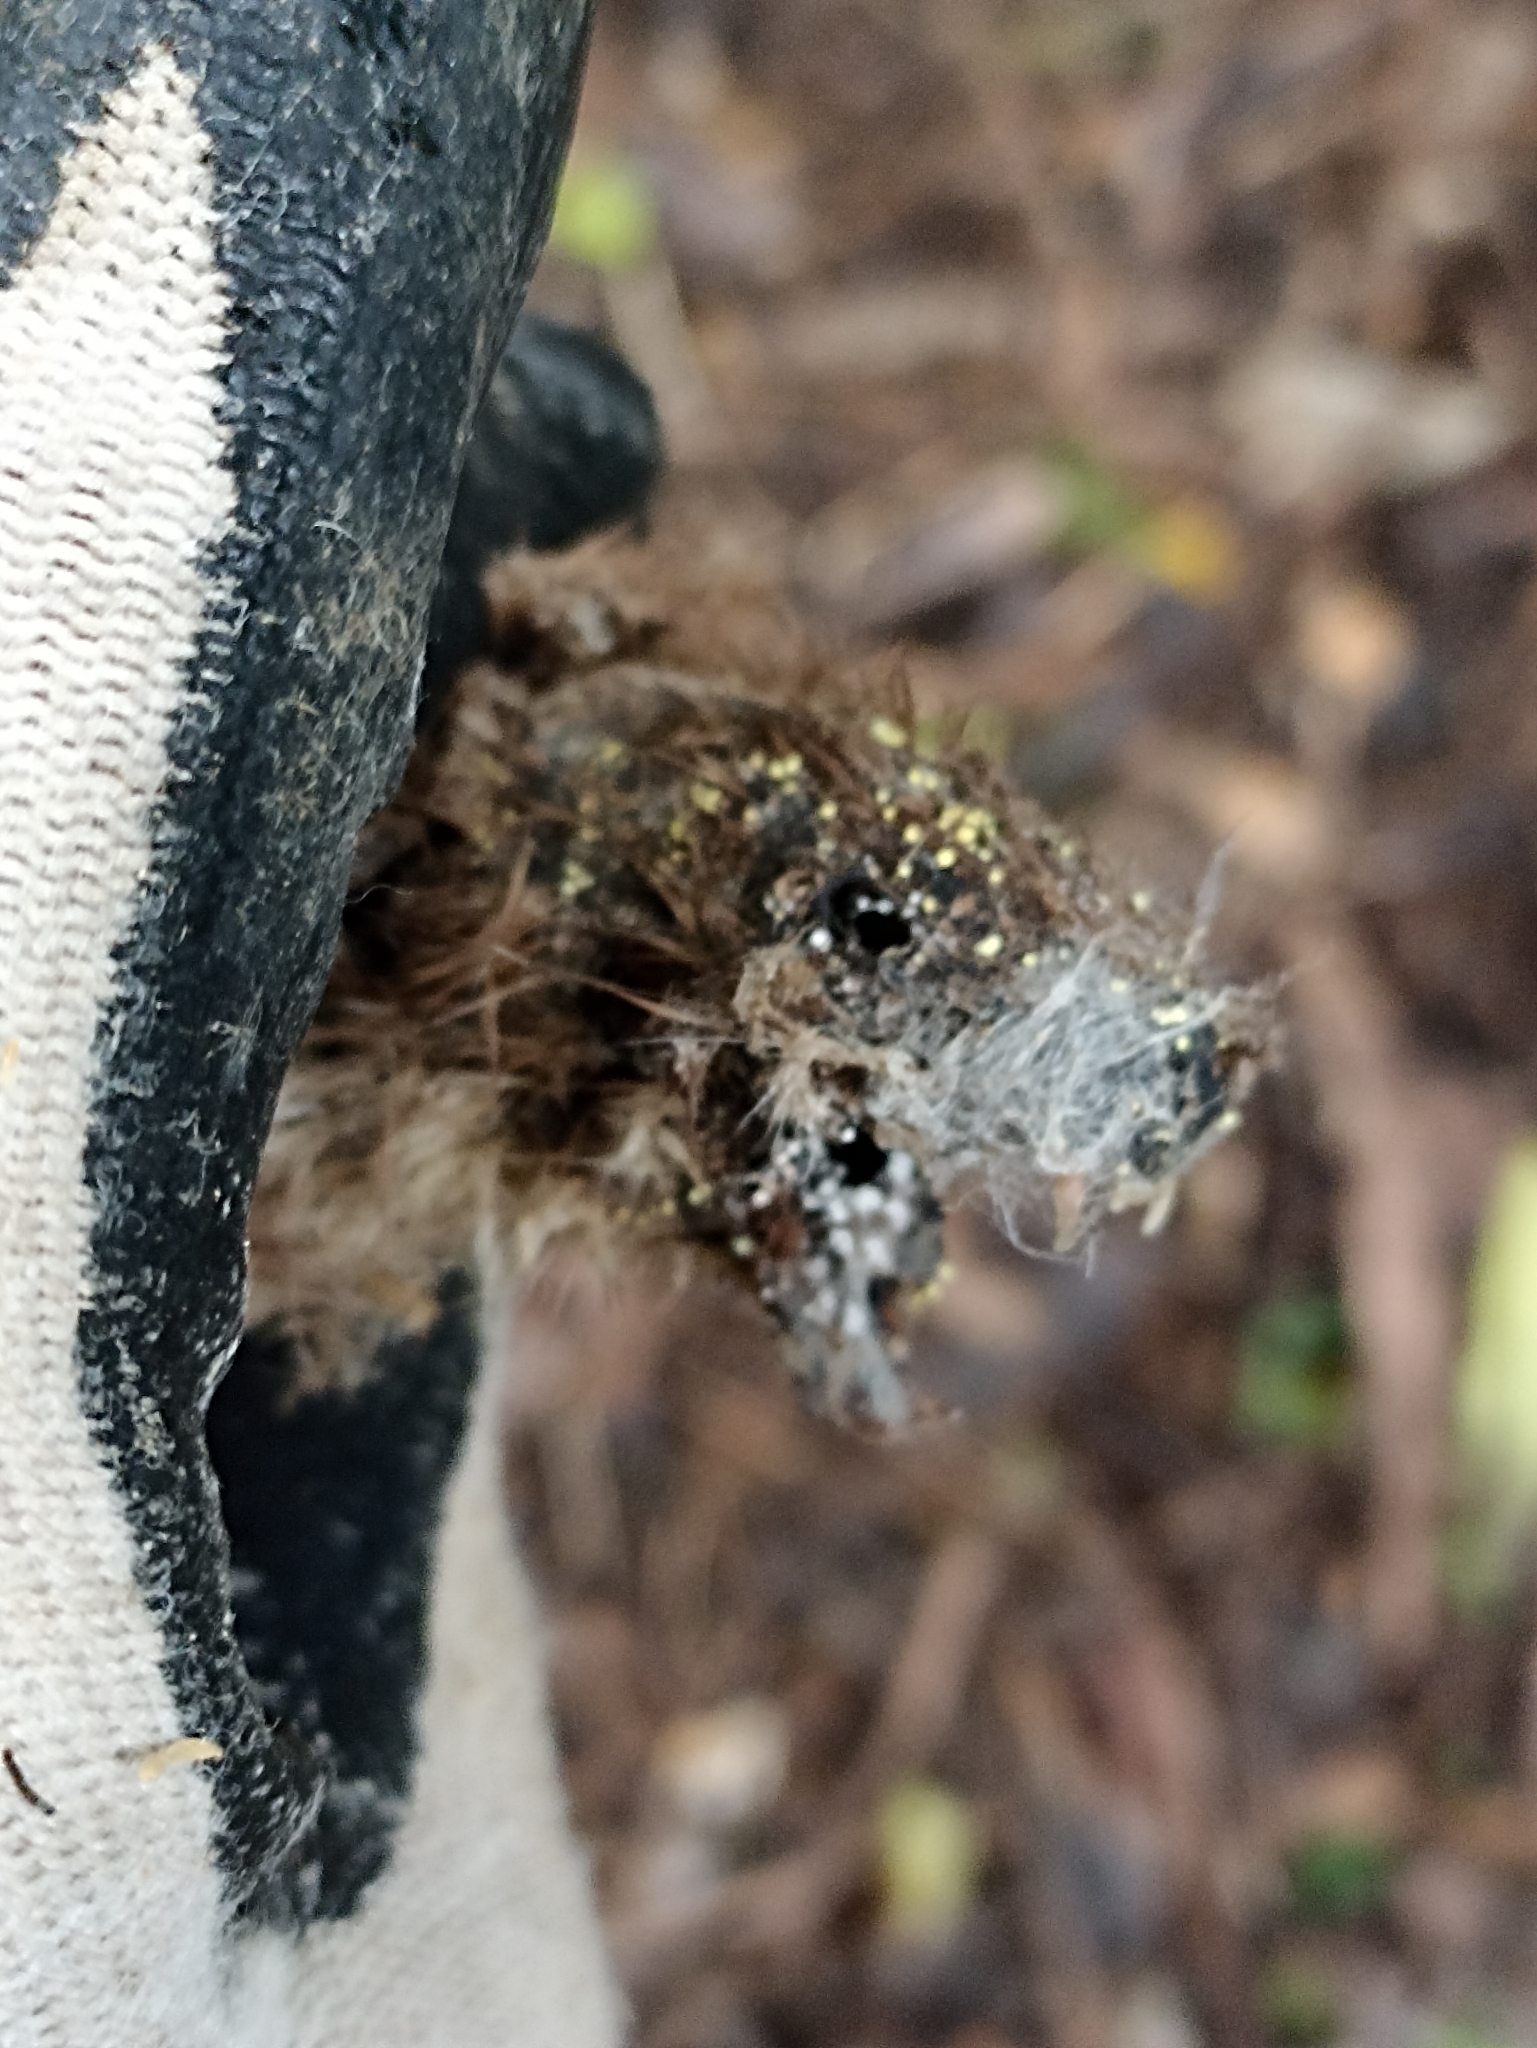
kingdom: Animalia
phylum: Chordata
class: Mammalia
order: Carnivora
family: Mustelidae
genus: Mustela
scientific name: Mustela erminea
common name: Stoat
